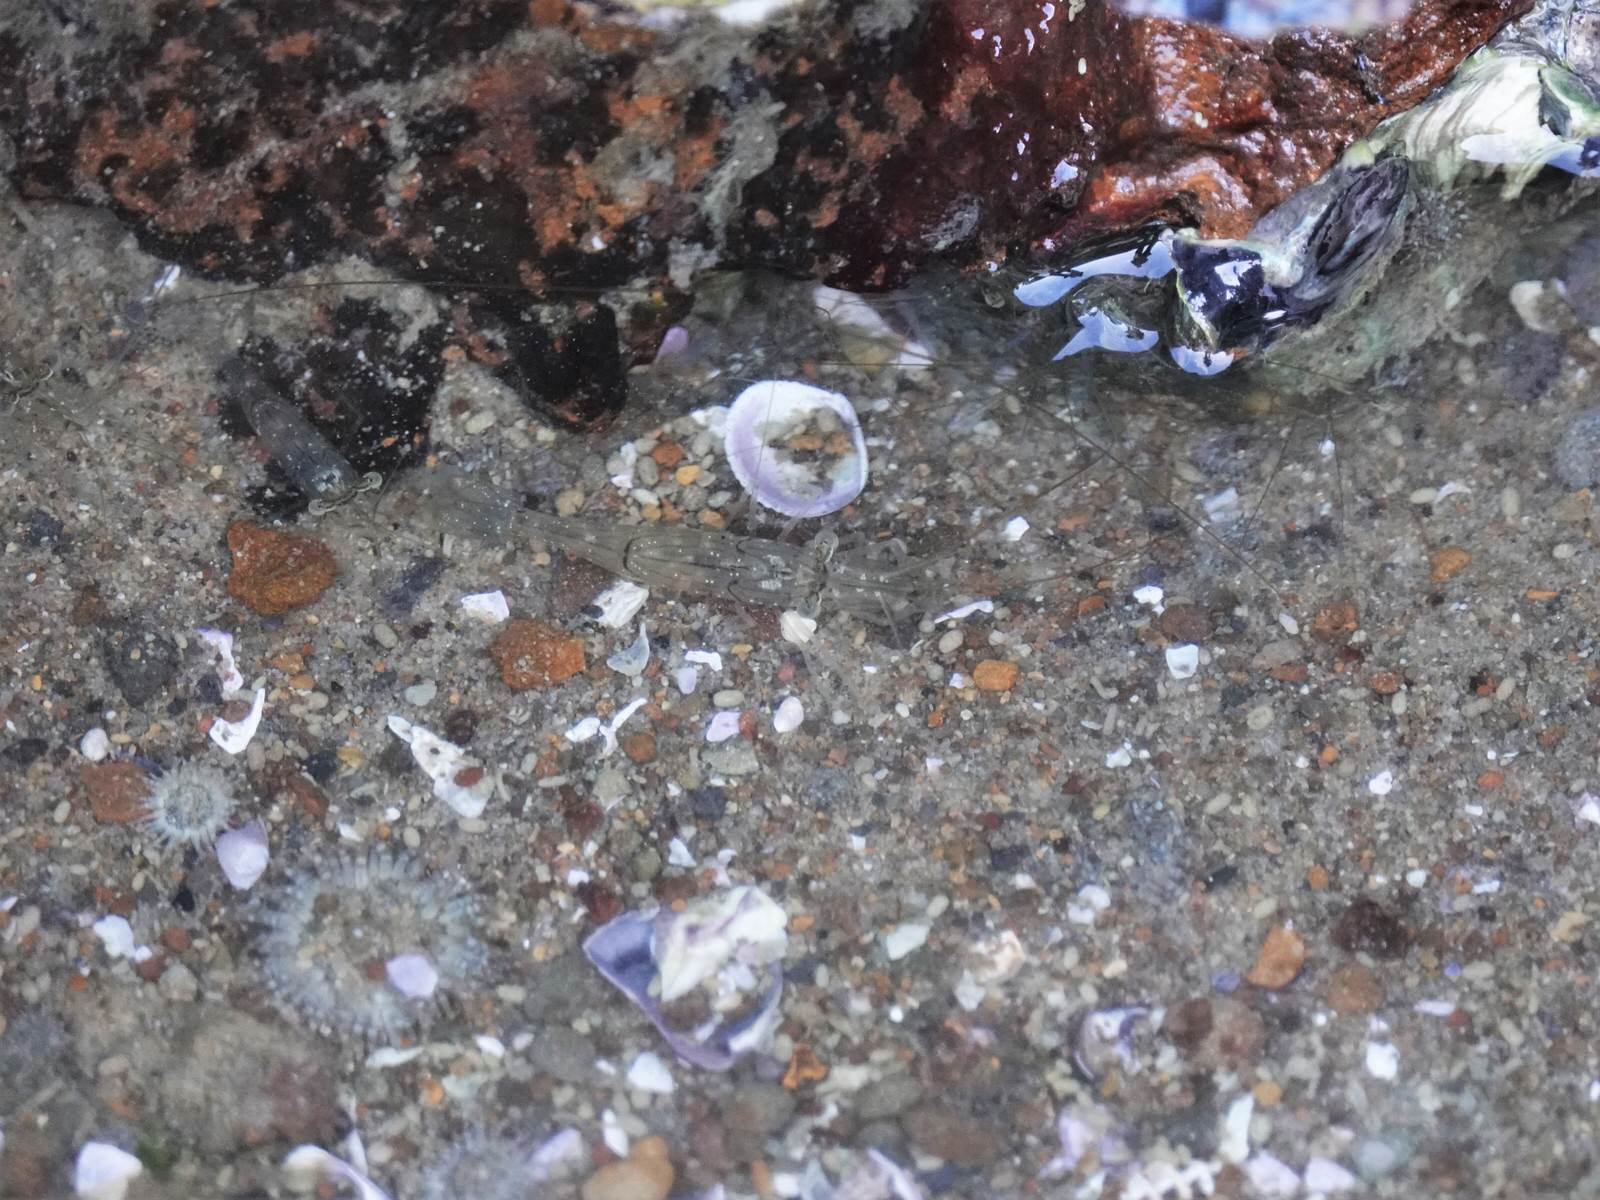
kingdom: Animalia
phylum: Arthropoda
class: Malacostraca
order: Decapoda
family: Palaemonidae
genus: Palaemon
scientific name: Palaemon affinis
